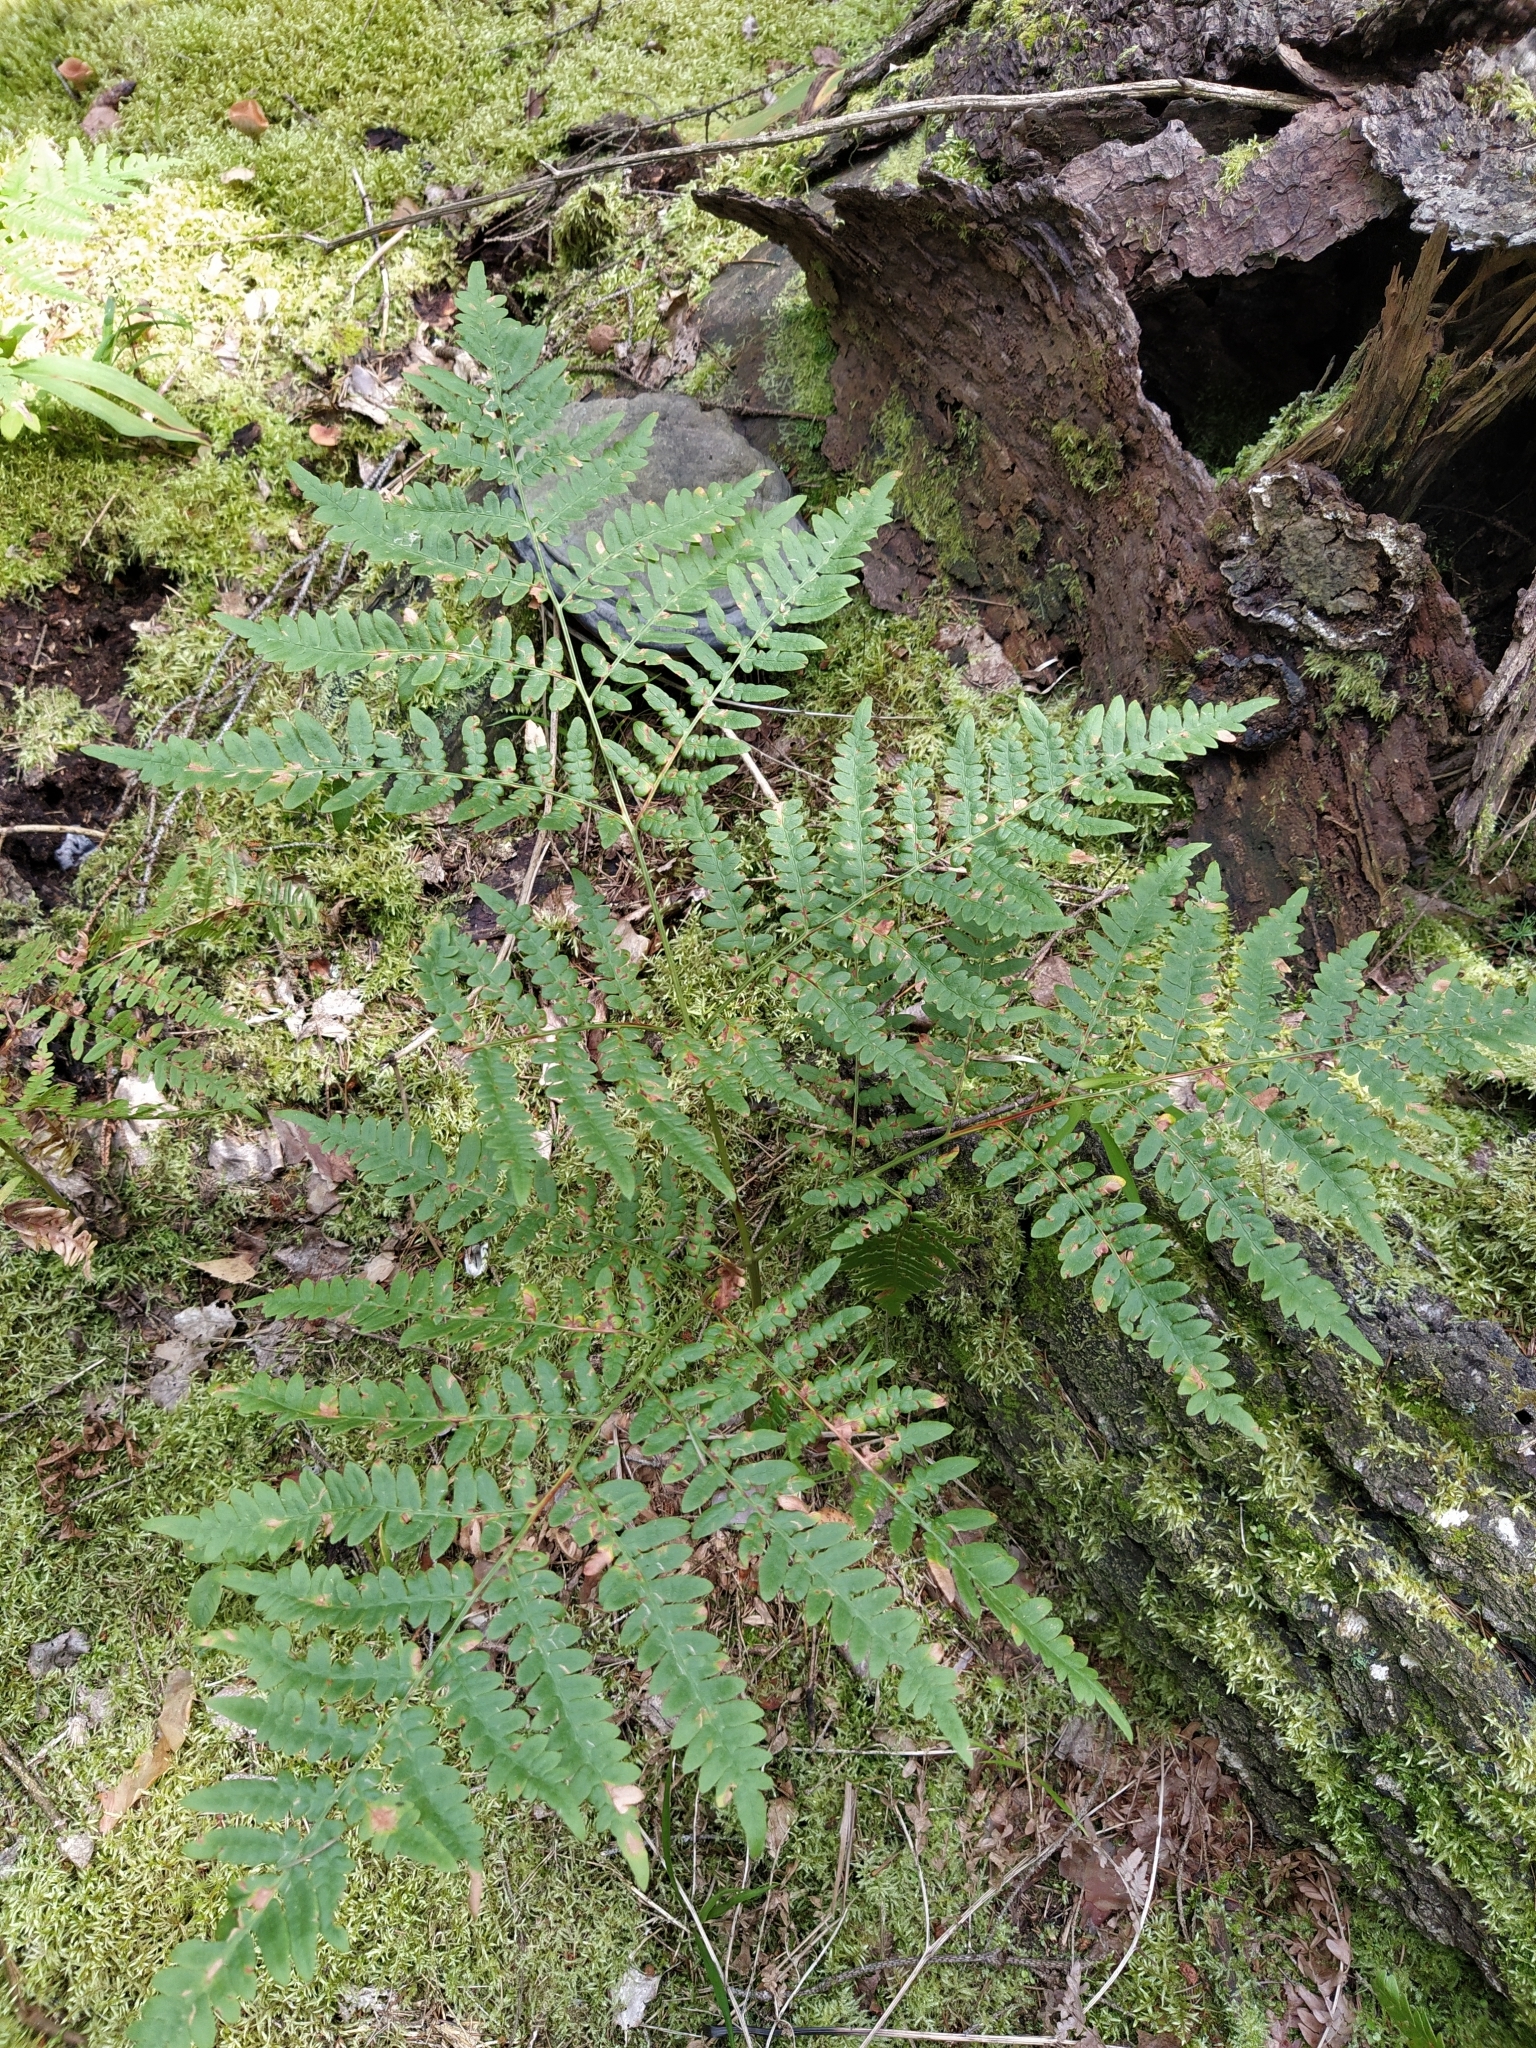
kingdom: Plantae
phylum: Tracheophyta
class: Polypodiopsida
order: Polypodiales
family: Dennstaedtiaceae
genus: Pteridium
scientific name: Pteridium aquilinum
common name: Bracken
